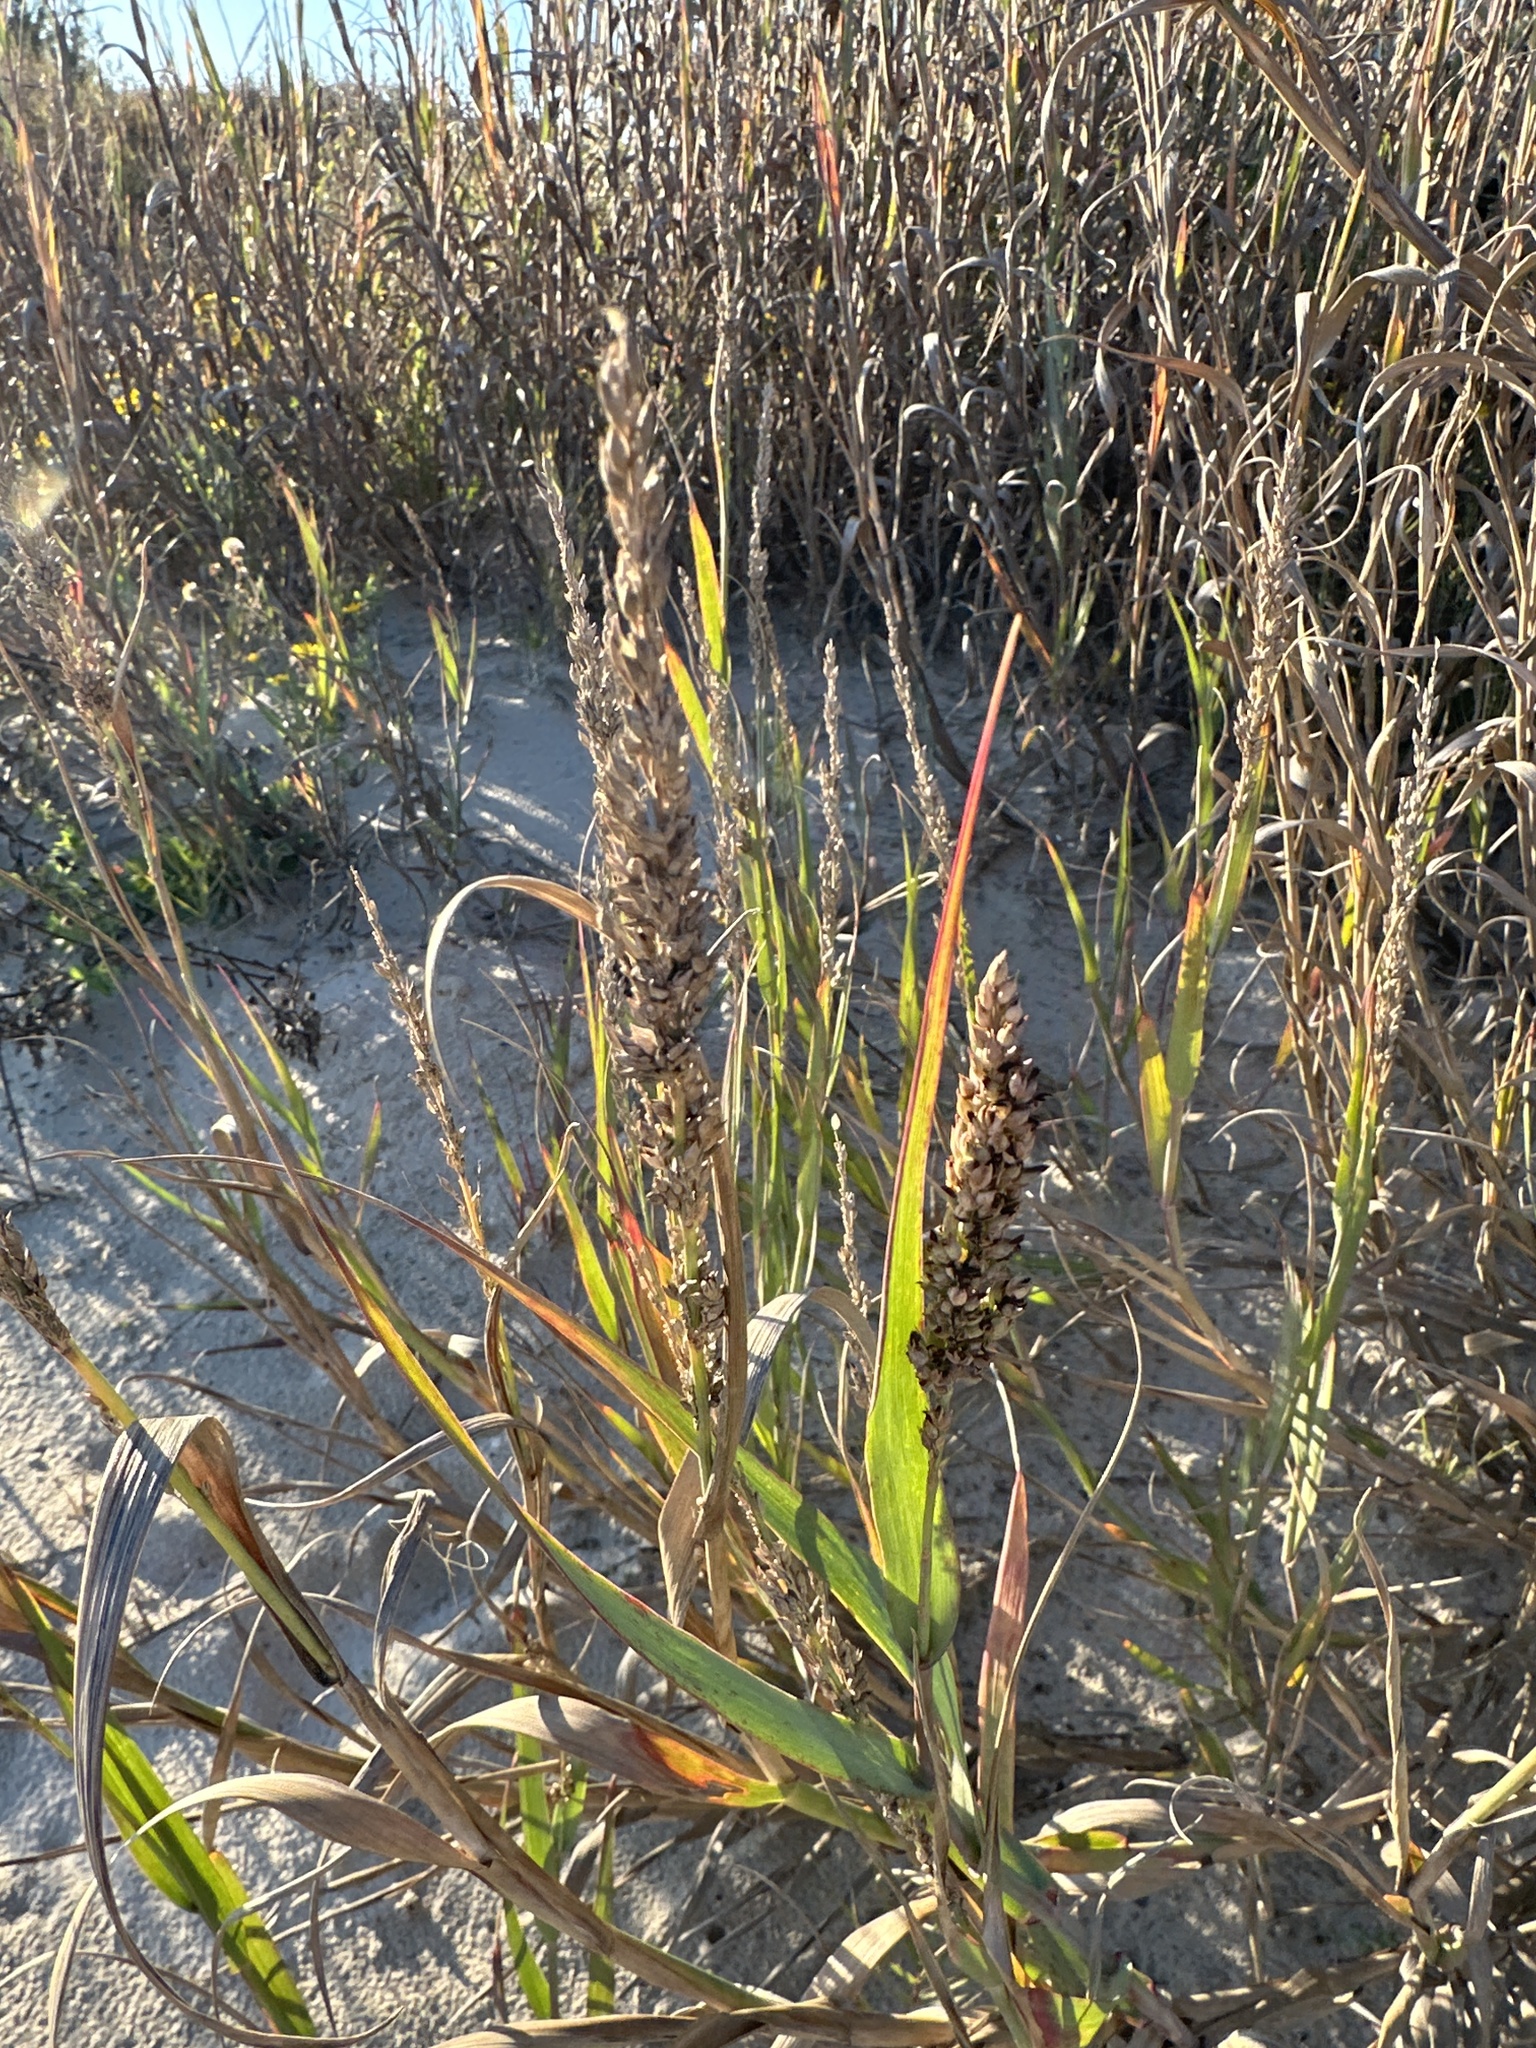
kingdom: Plantae
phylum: Tracheophyta
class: Liliopsida
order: Poales
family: Poaceae
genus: Panicum
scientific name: Panicum amarum
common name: Bitter panicum
